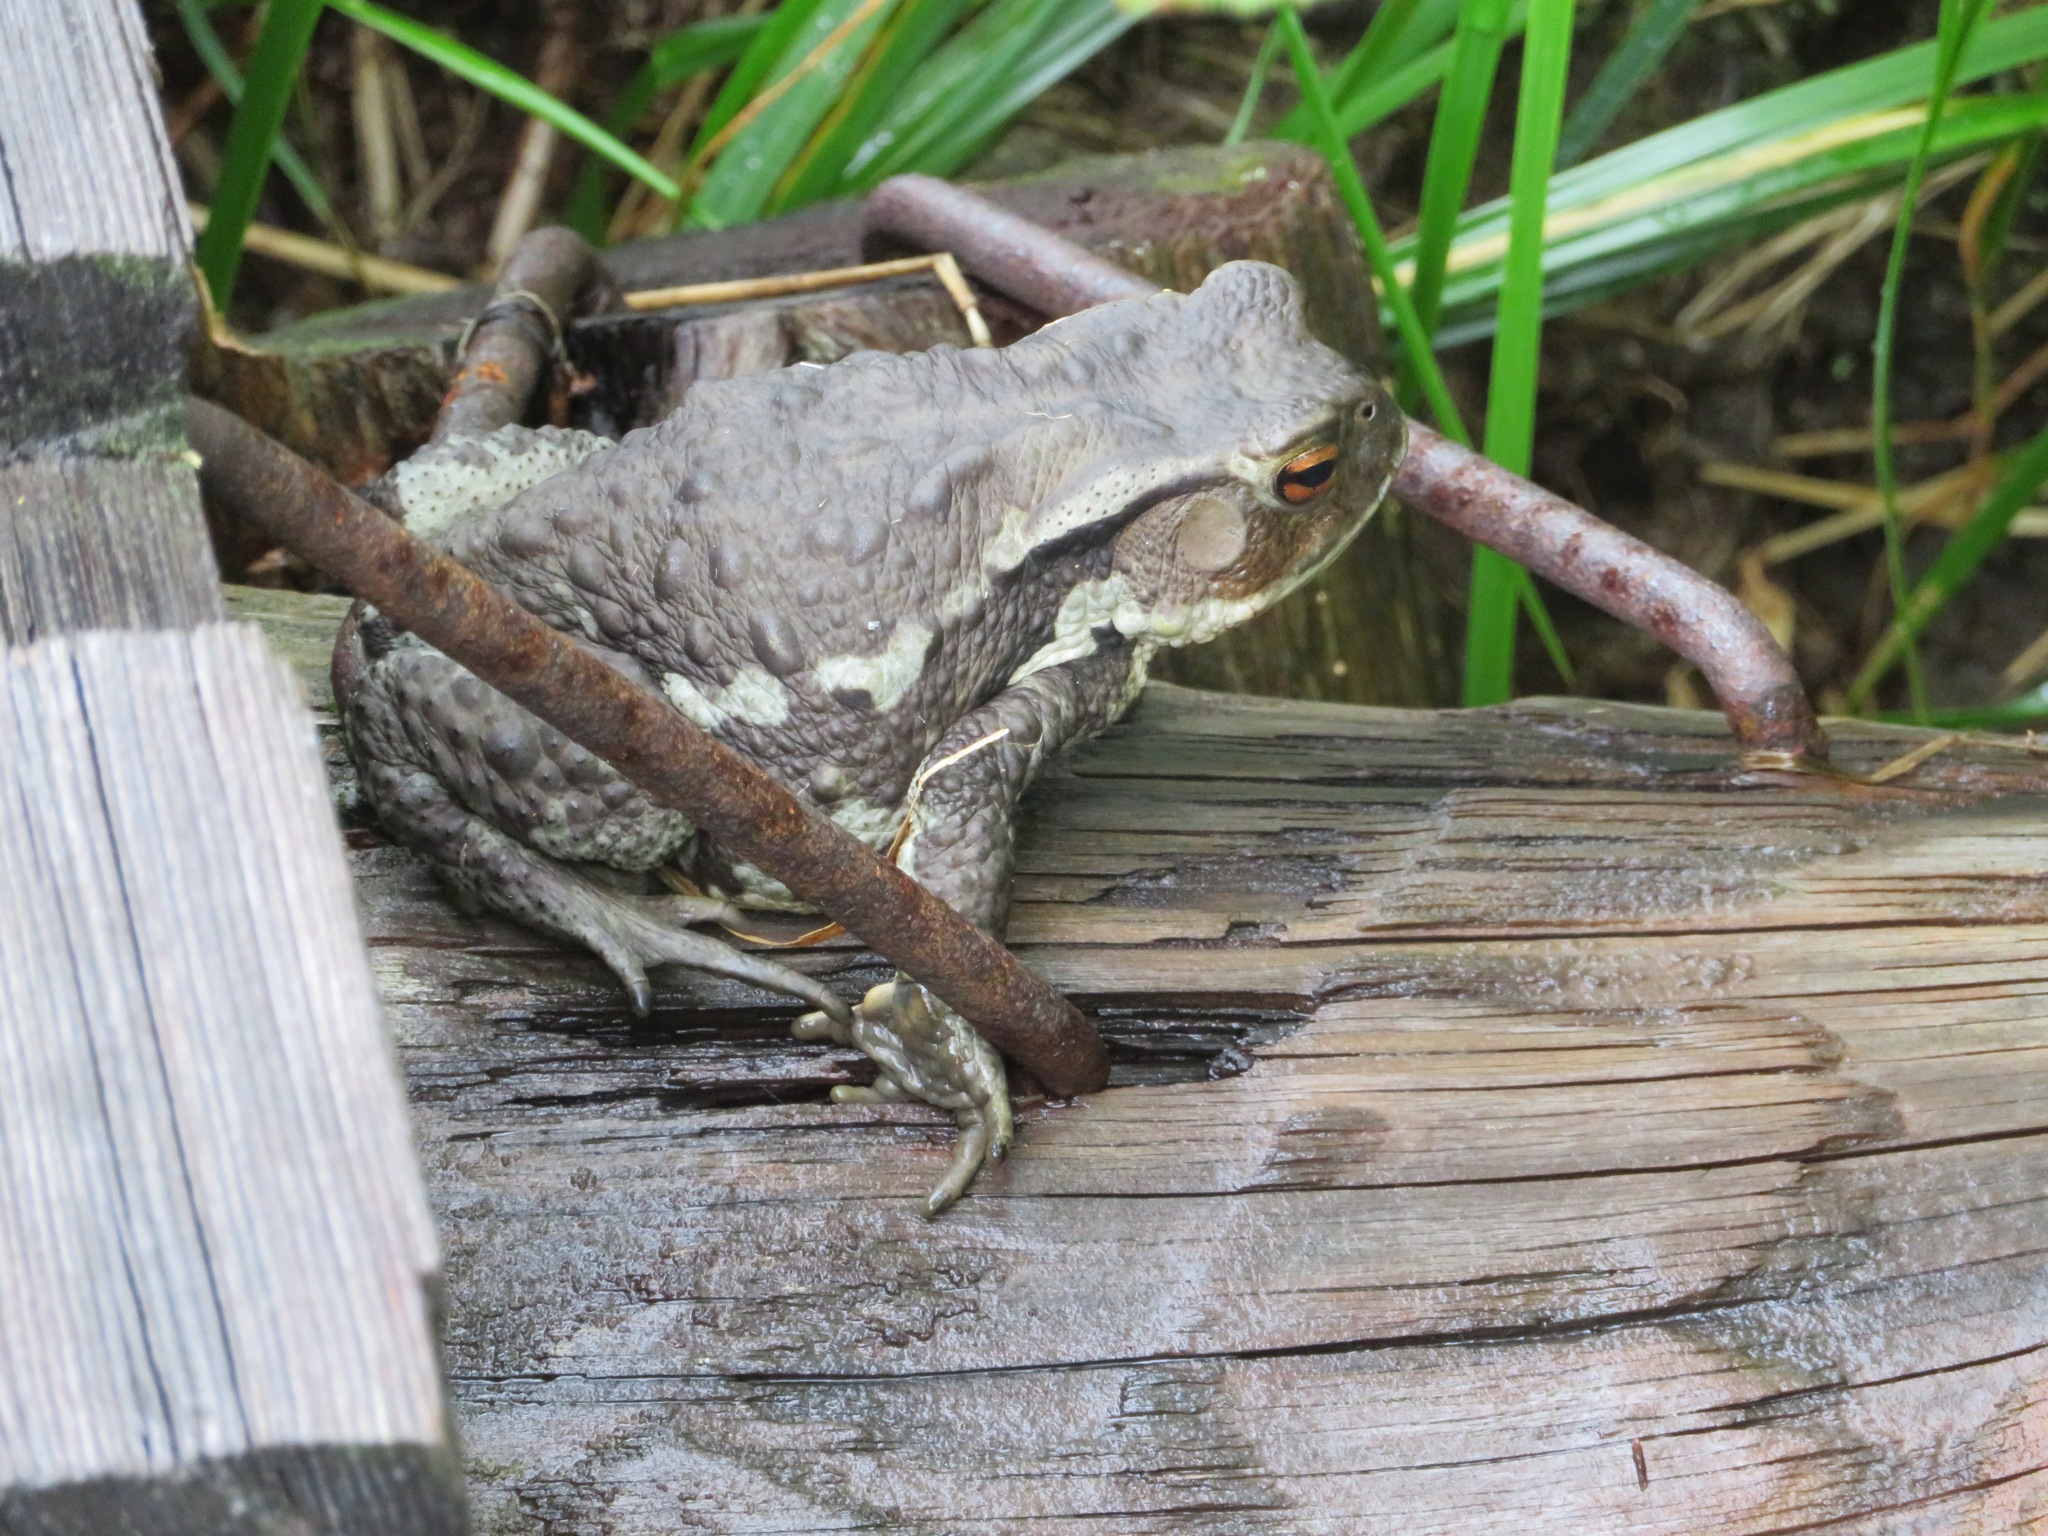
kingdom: Animalia
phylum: Chordata
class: Amphibia
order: Anura
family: Bufonidae
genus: Bufo
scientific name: Bufo japonicus
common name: Japanese common toad
